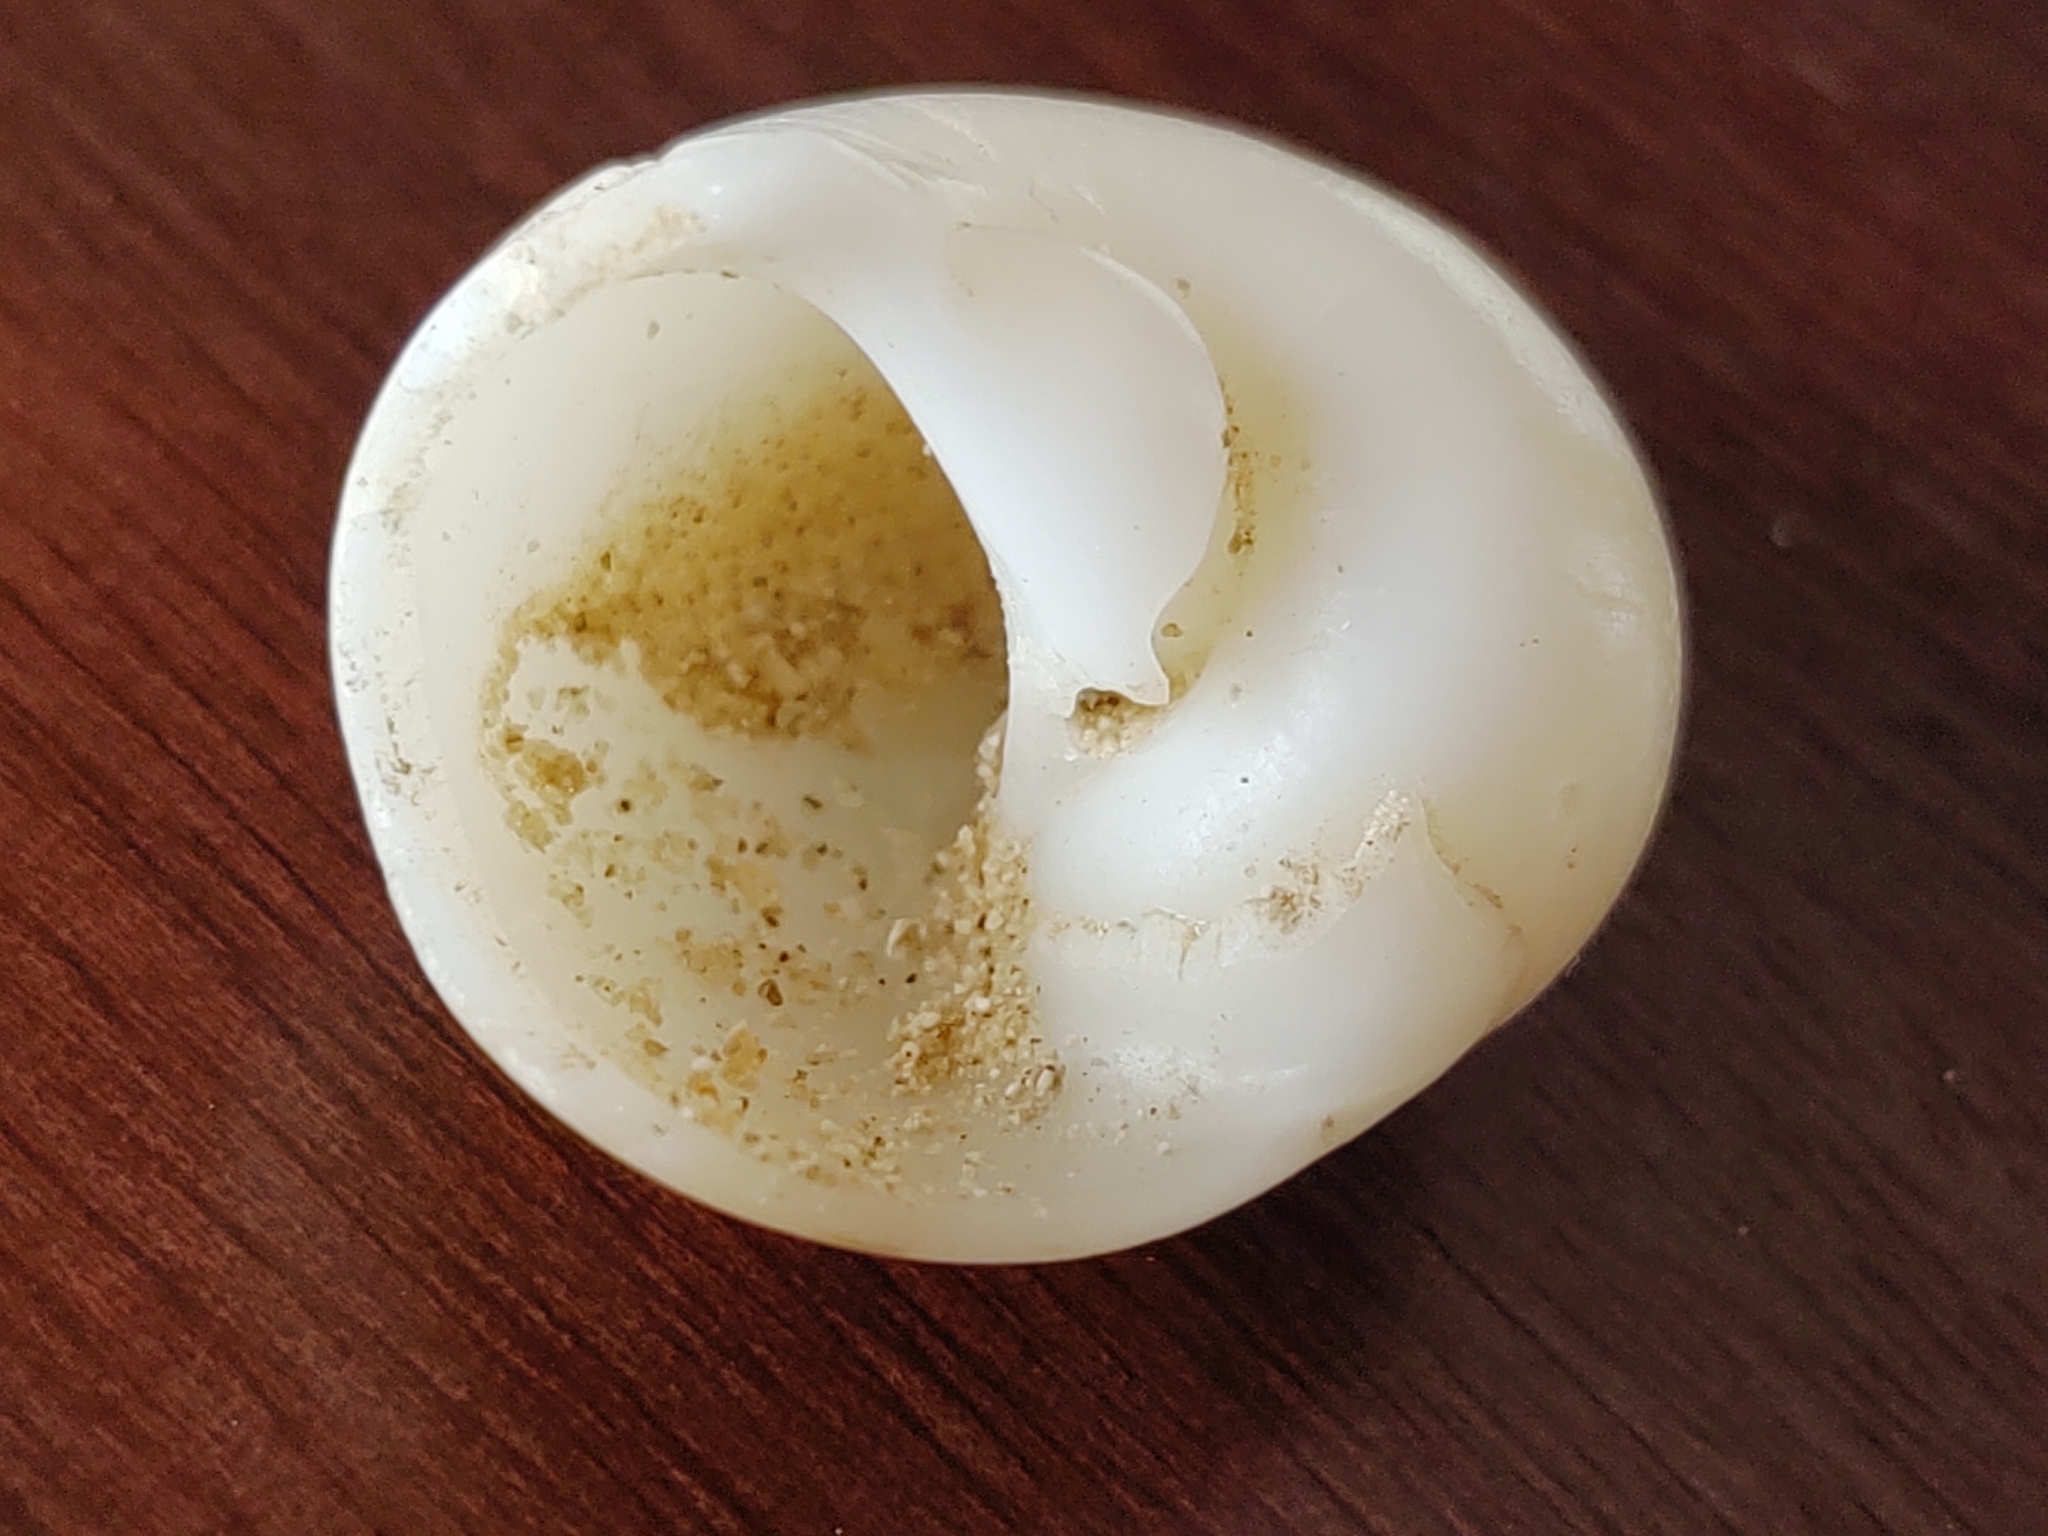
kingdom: Animalia
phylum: Mollusca
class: Gastropoda
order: Littorinimorpha
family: Naticidae
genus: Naticarius
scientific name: Naticarius canrena
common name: Colorful moonsnail
